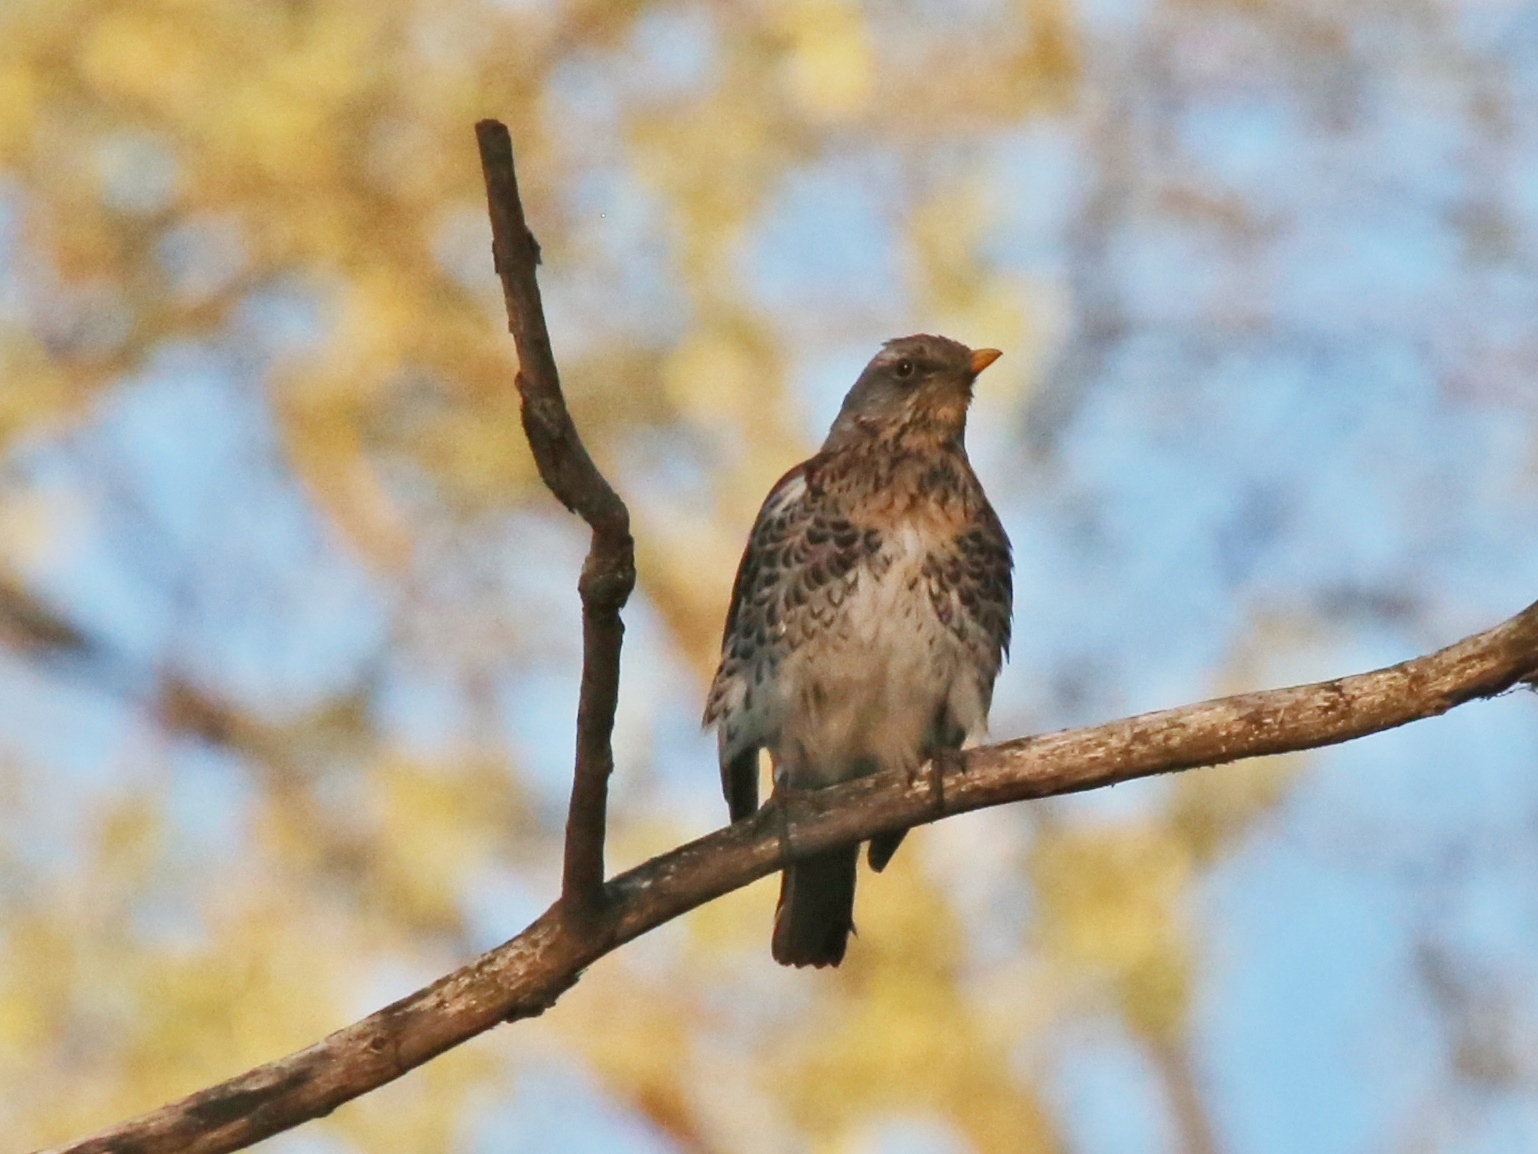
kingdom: Animalia
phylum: Chordata
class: Aves
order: Passeriformes
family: Turdidae
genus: Turdus
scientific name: Turdus pilaris
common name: Fieldfare
